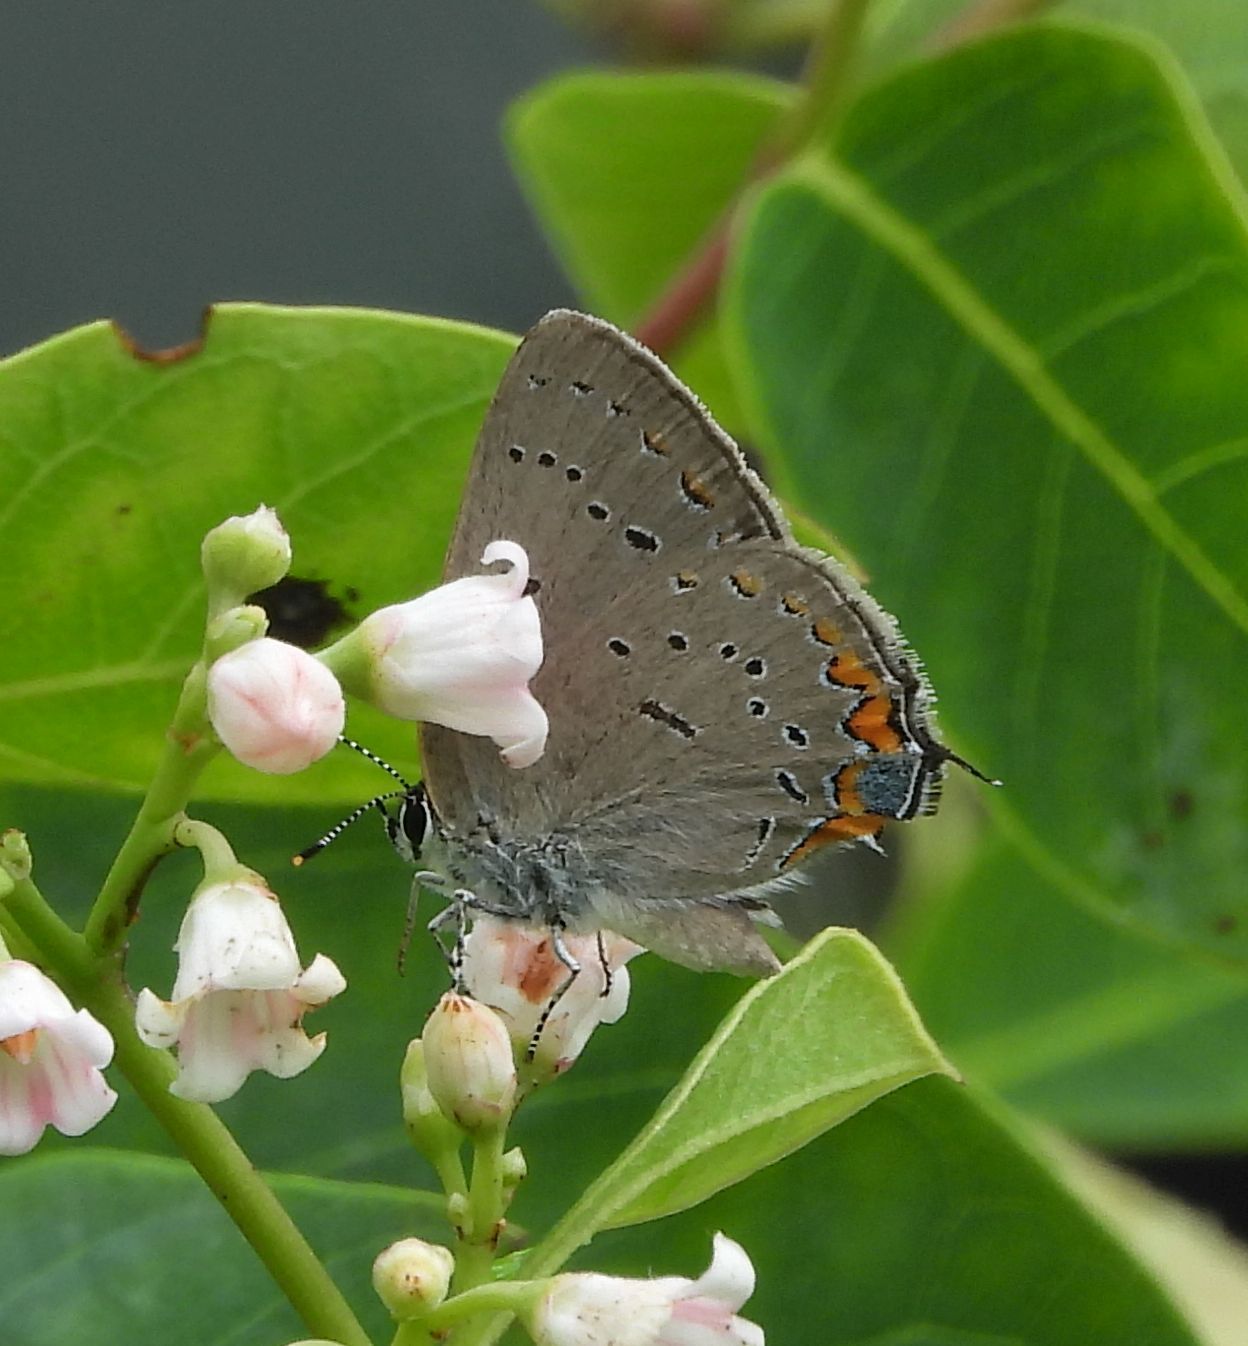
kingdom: Animalia
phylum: Arthropoda
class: Insecta
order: Lepidoptera
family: Lycaenidae
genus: Strymon
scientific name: Strymon acadica
